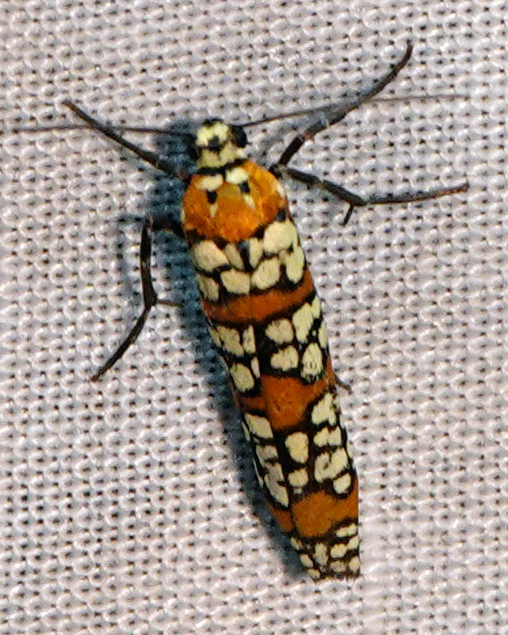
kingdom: Animalia
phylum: Arthropoda
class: Insecta
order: Lepidoptera
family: Attevidae
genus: Atteva
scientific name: Atteva punctella
